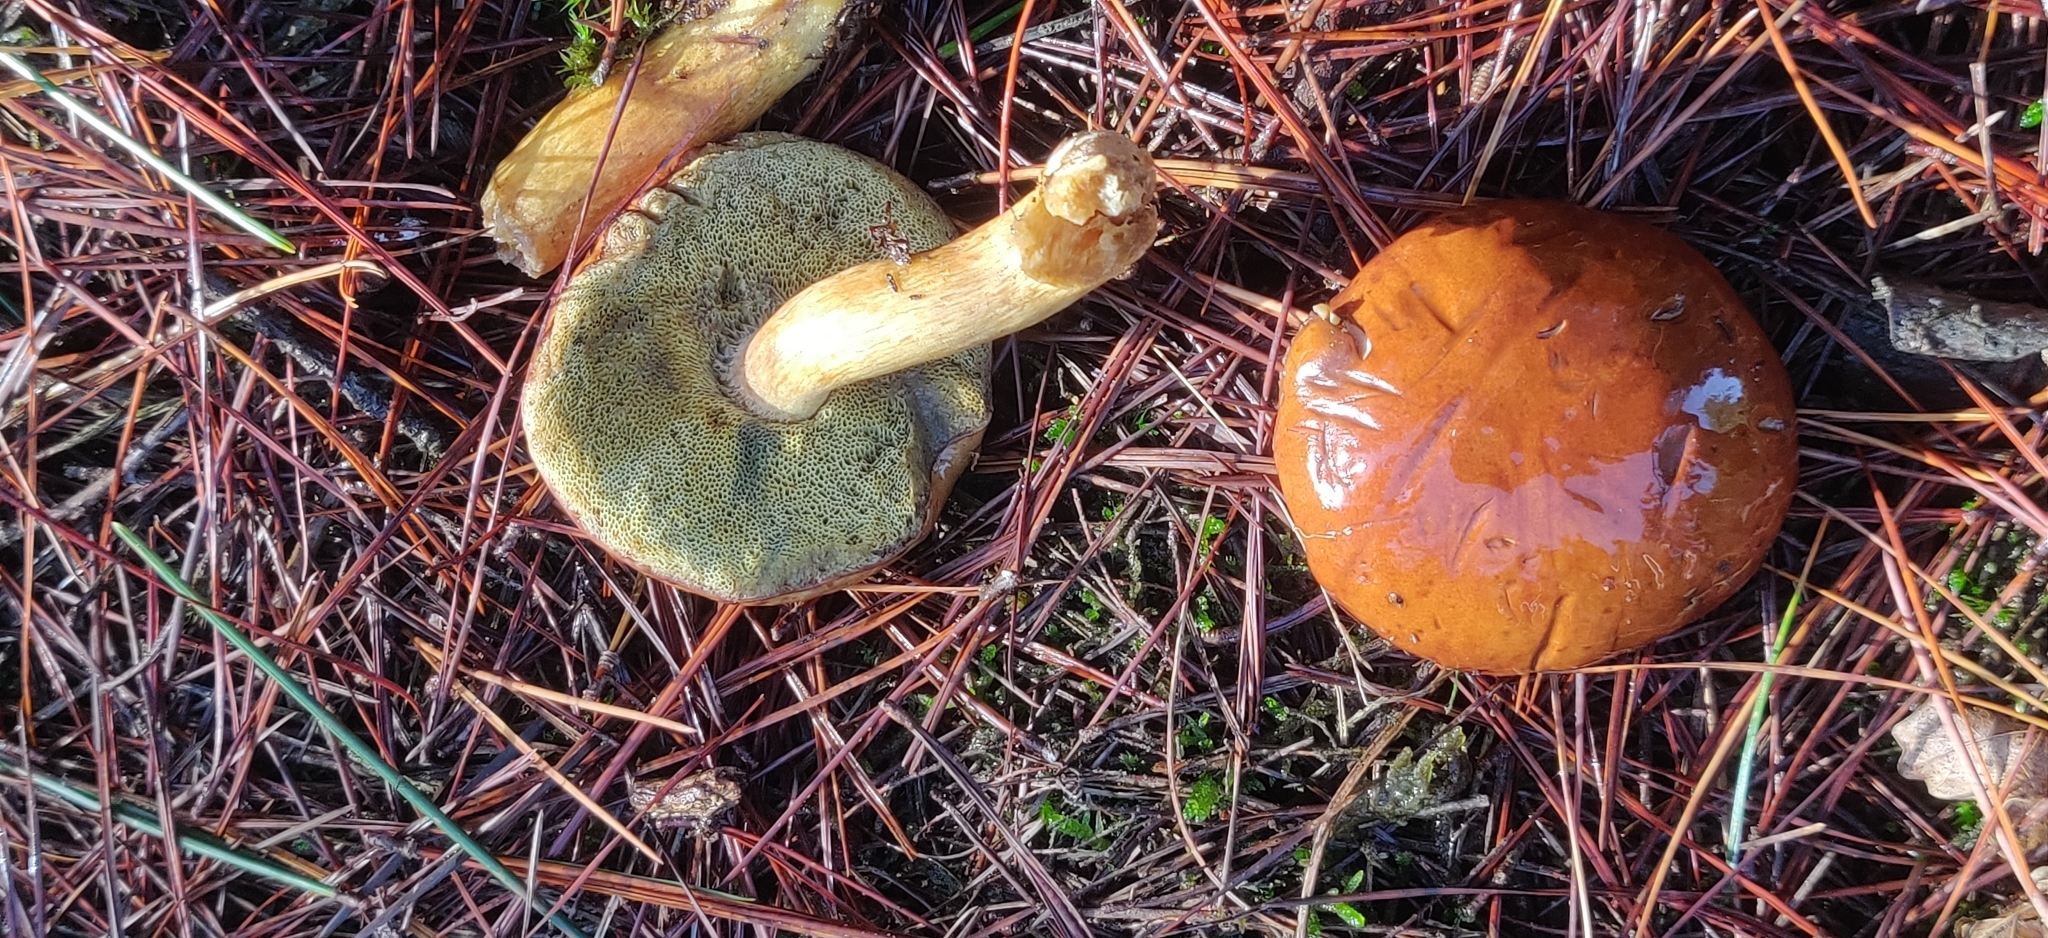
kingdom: Fungi
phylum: Basidiomycota
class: Agaricomycetes
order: Boletales
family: Boletaceae
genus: Imleria
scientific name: Imleria badia
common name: Bay bolete
